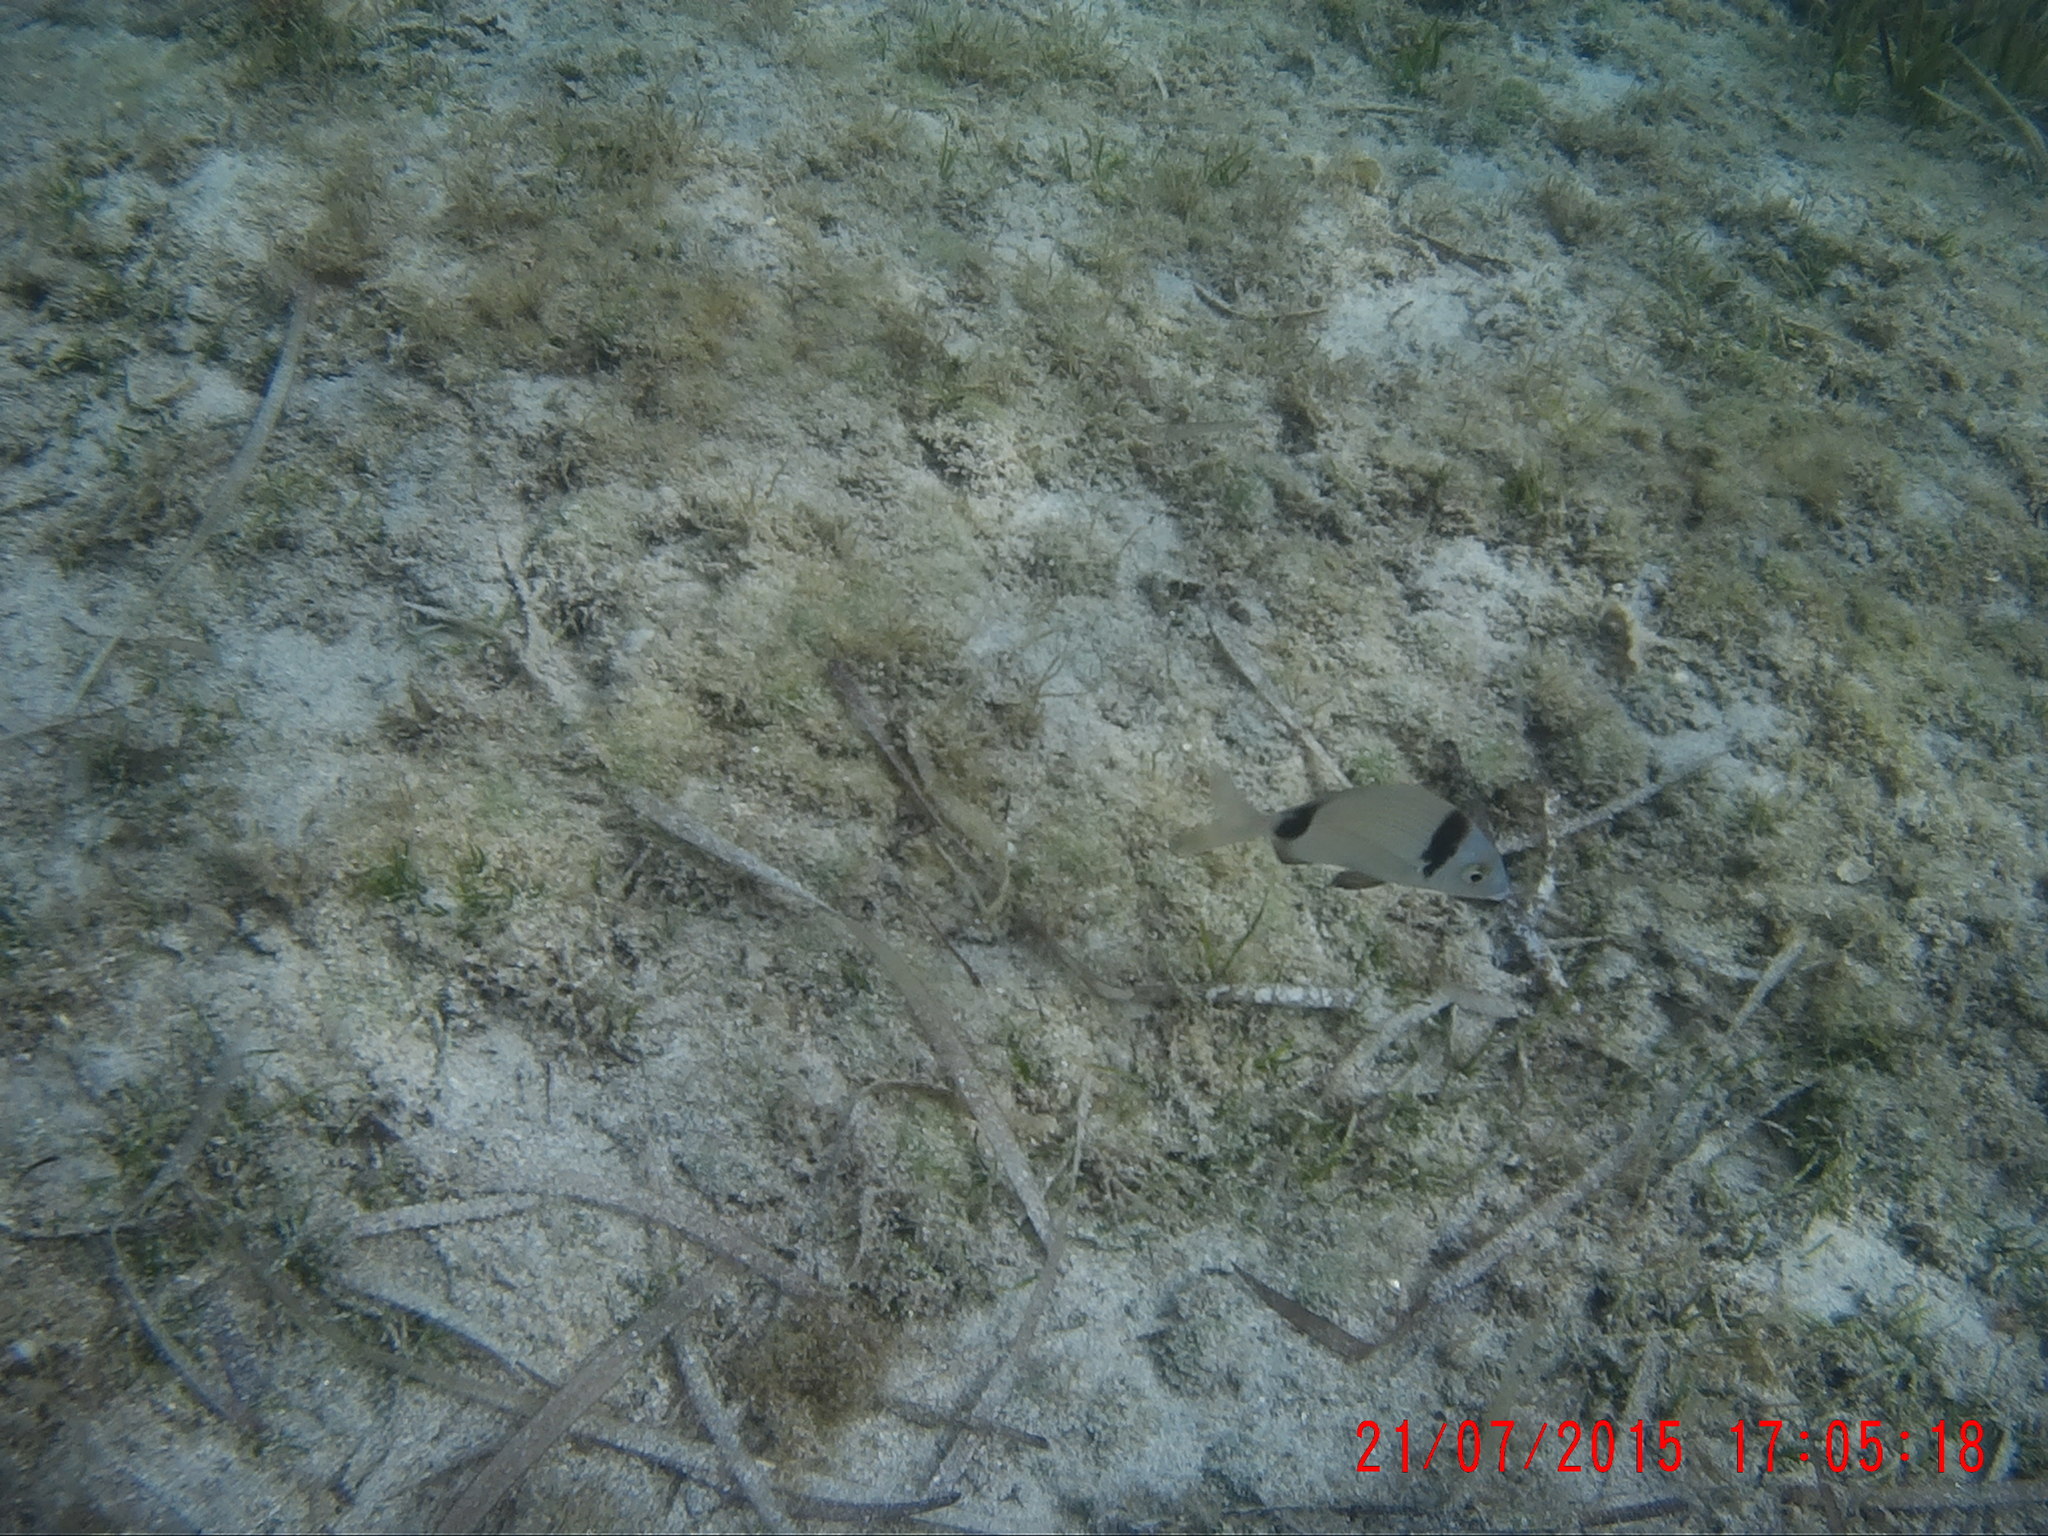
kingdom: Animalia
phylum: Chordata
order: Perciformes
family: Sparidae
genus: Diplodus
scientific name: Diplodus vulgaris
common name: Common two-banded seabream
